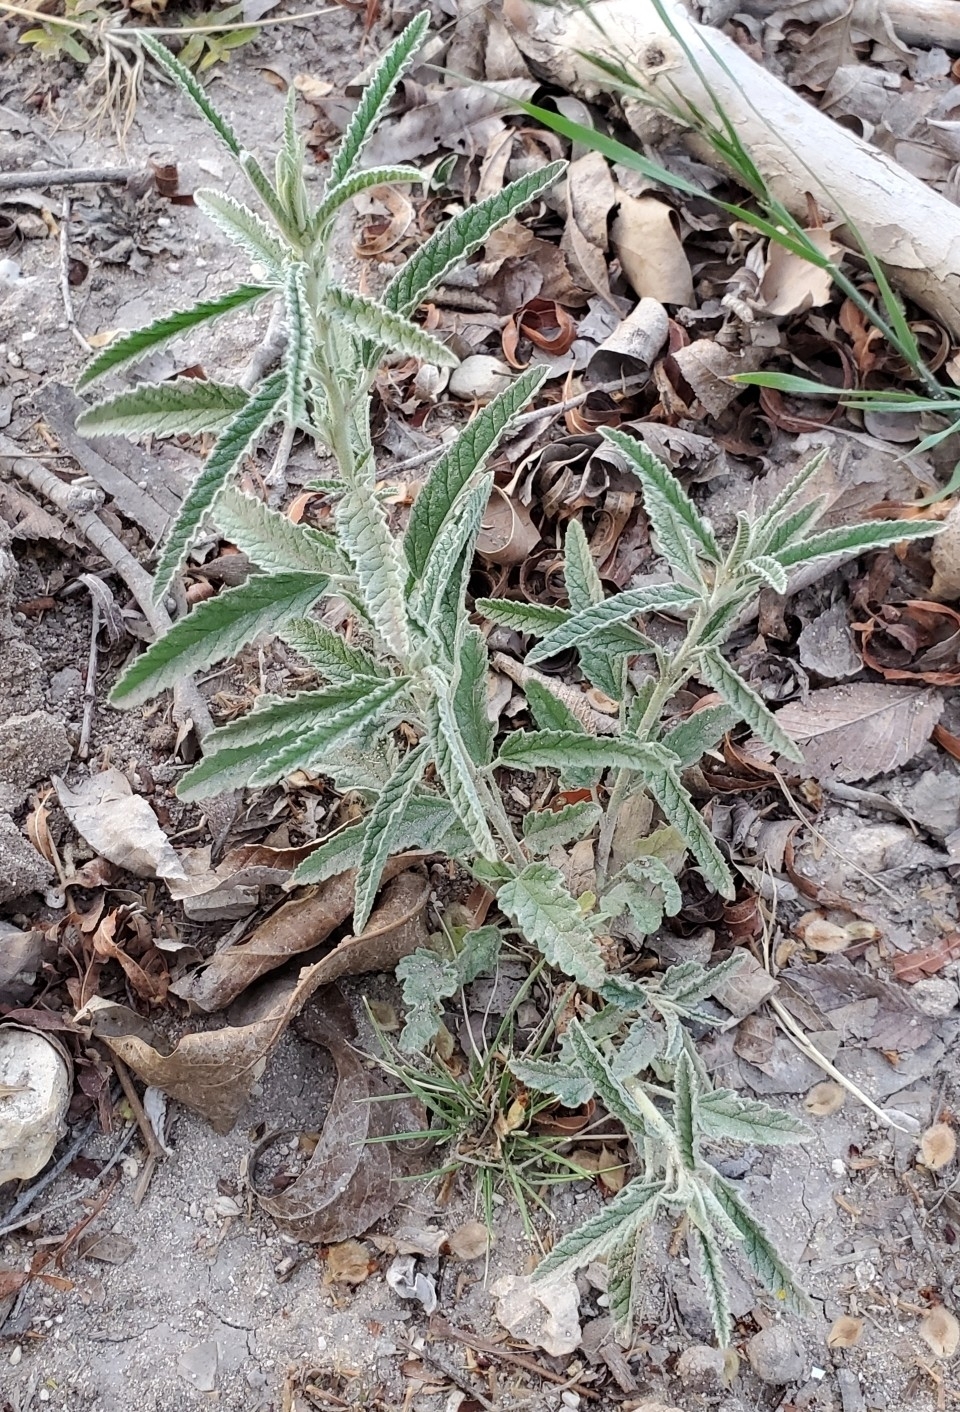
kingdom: Plantae
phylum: Tracheophyta
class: Magnoliopsida
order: Solanales
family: Solanaceae
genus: Solanum
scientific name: Solanum elaeagnifolium
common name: Silverleaf nightshade
